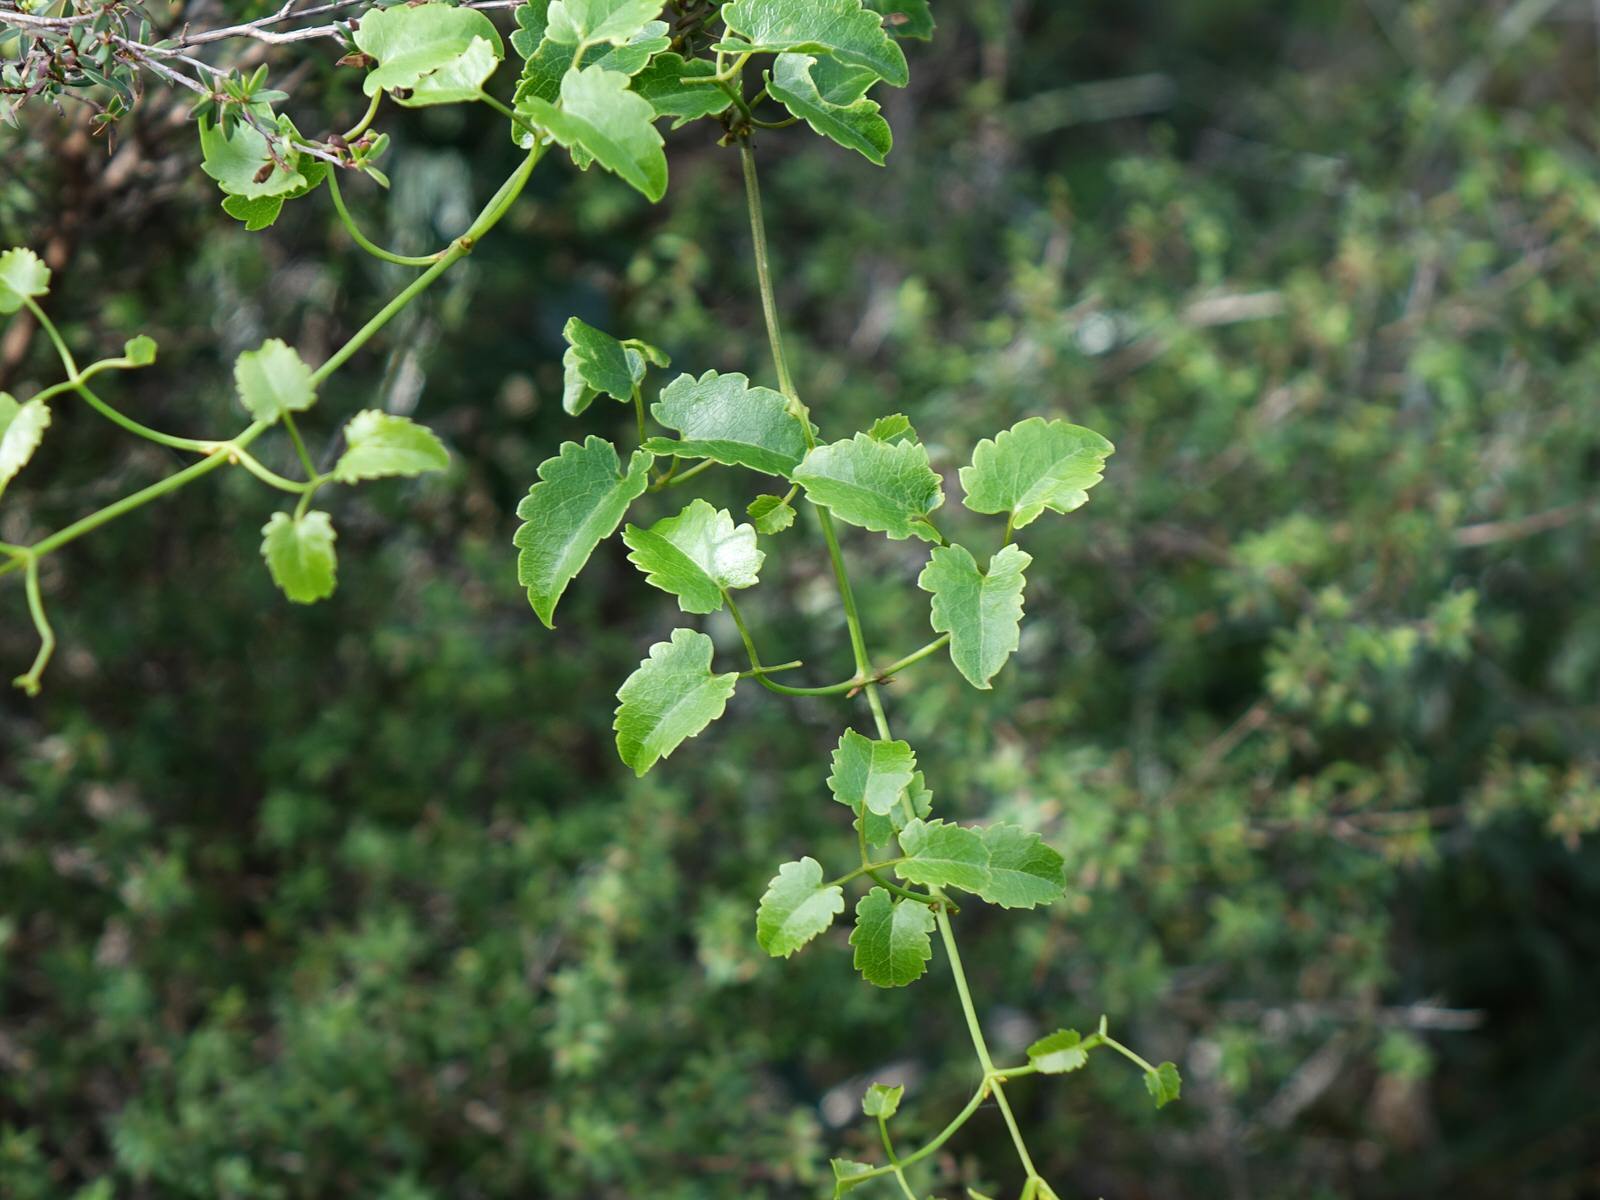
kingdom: Plantae
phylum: Tracheophyta
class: Magnoliopsida
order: Ranunculales
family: Ranunculaceae
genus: Clematis
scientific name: Clematis forsteri
